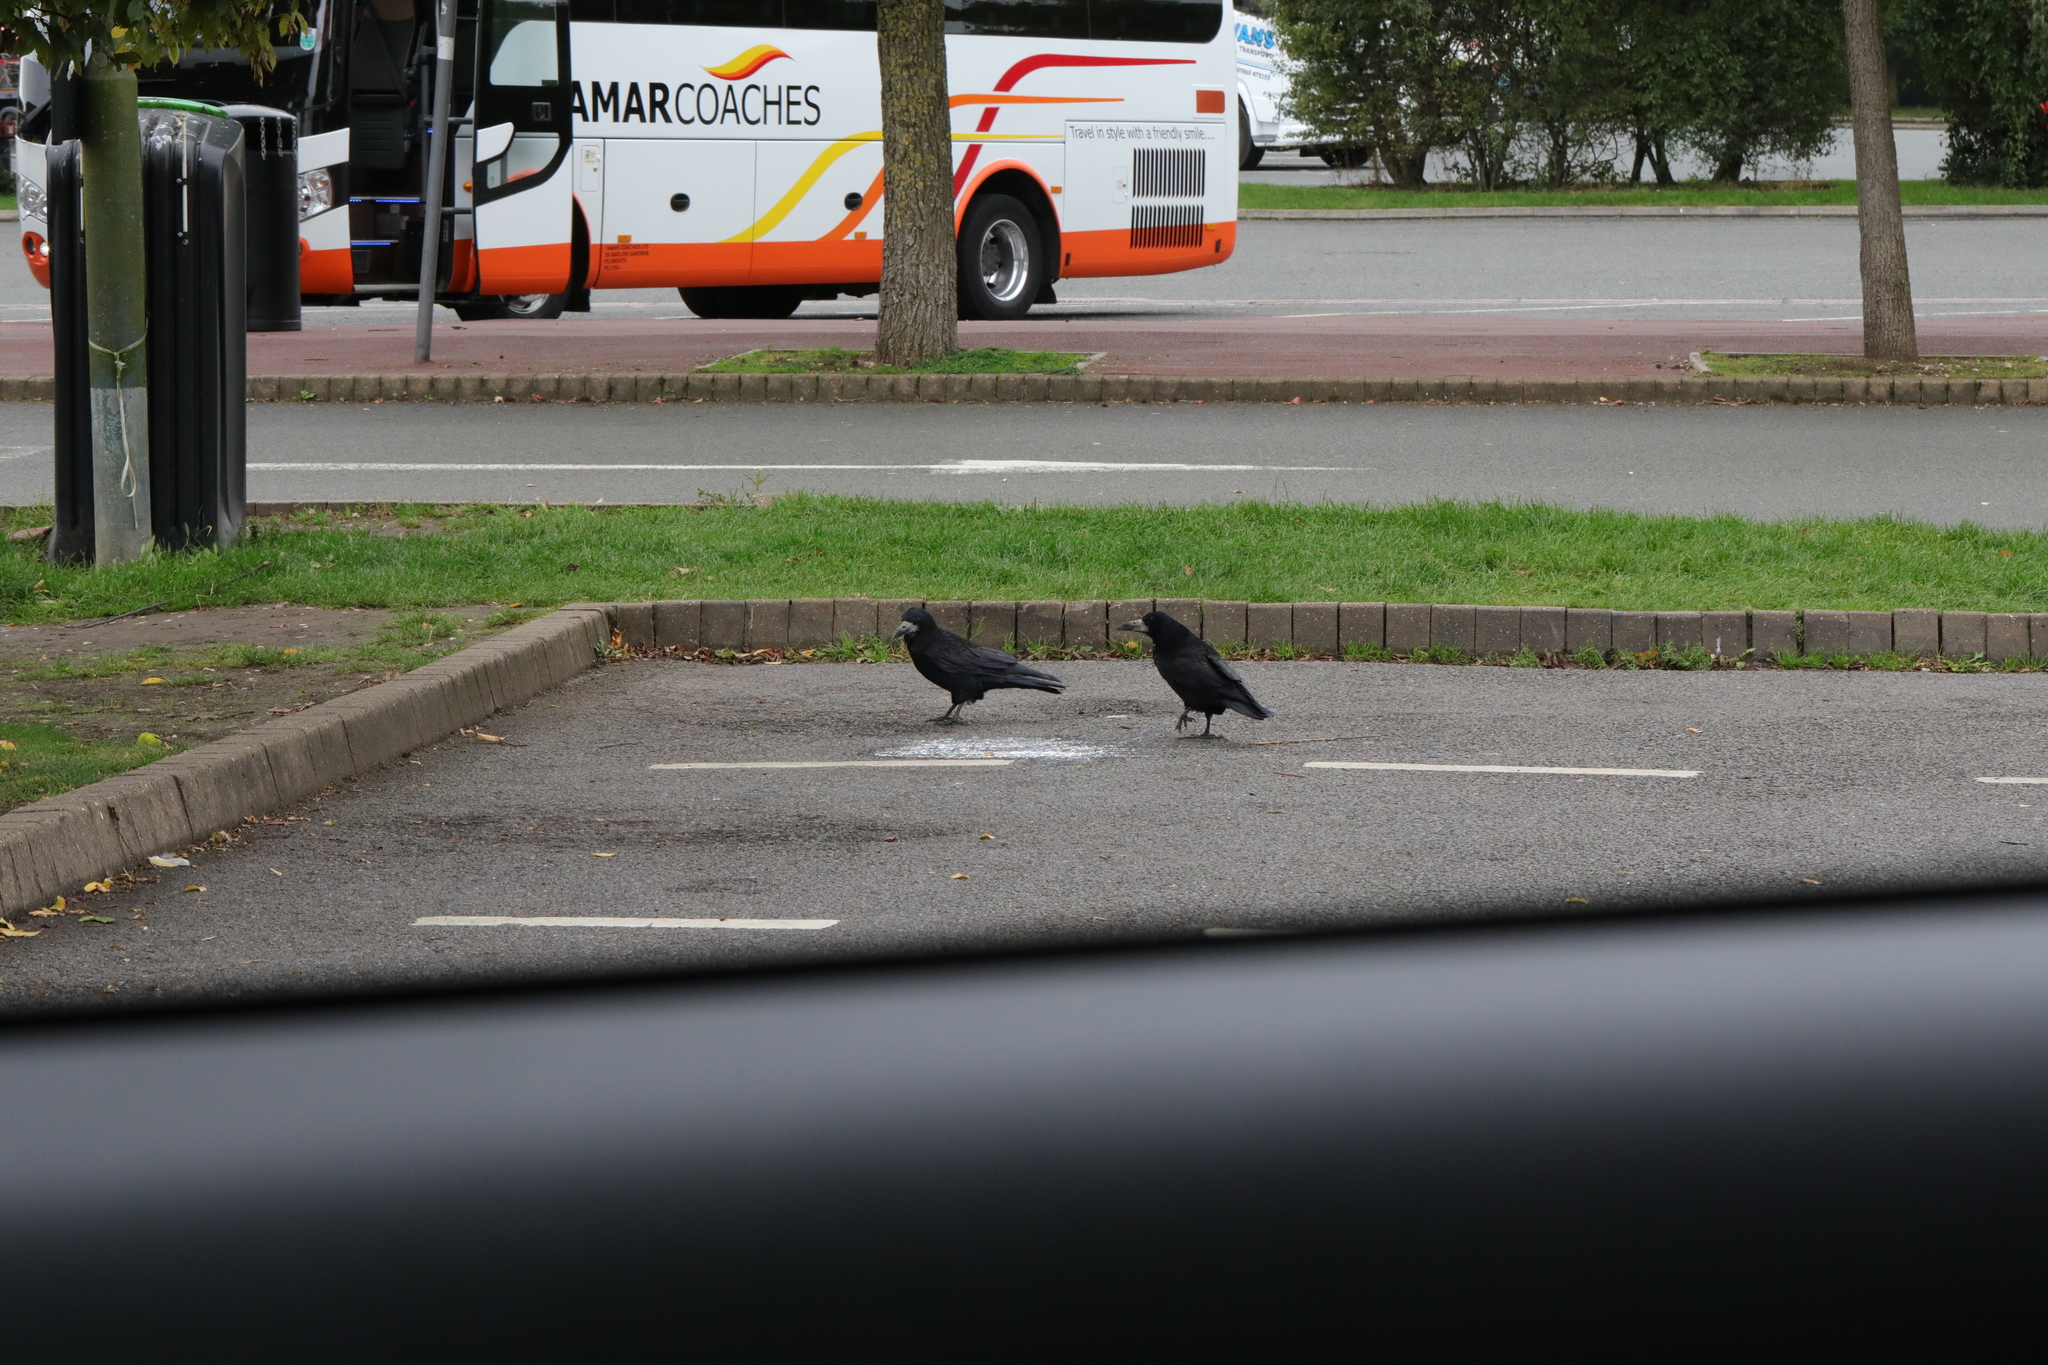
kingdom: Animalia
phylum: Chordata
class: Aves
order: Passeriformes
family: Corvidae
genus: Corvus
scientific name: Corvus frugilegus
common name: Rook
